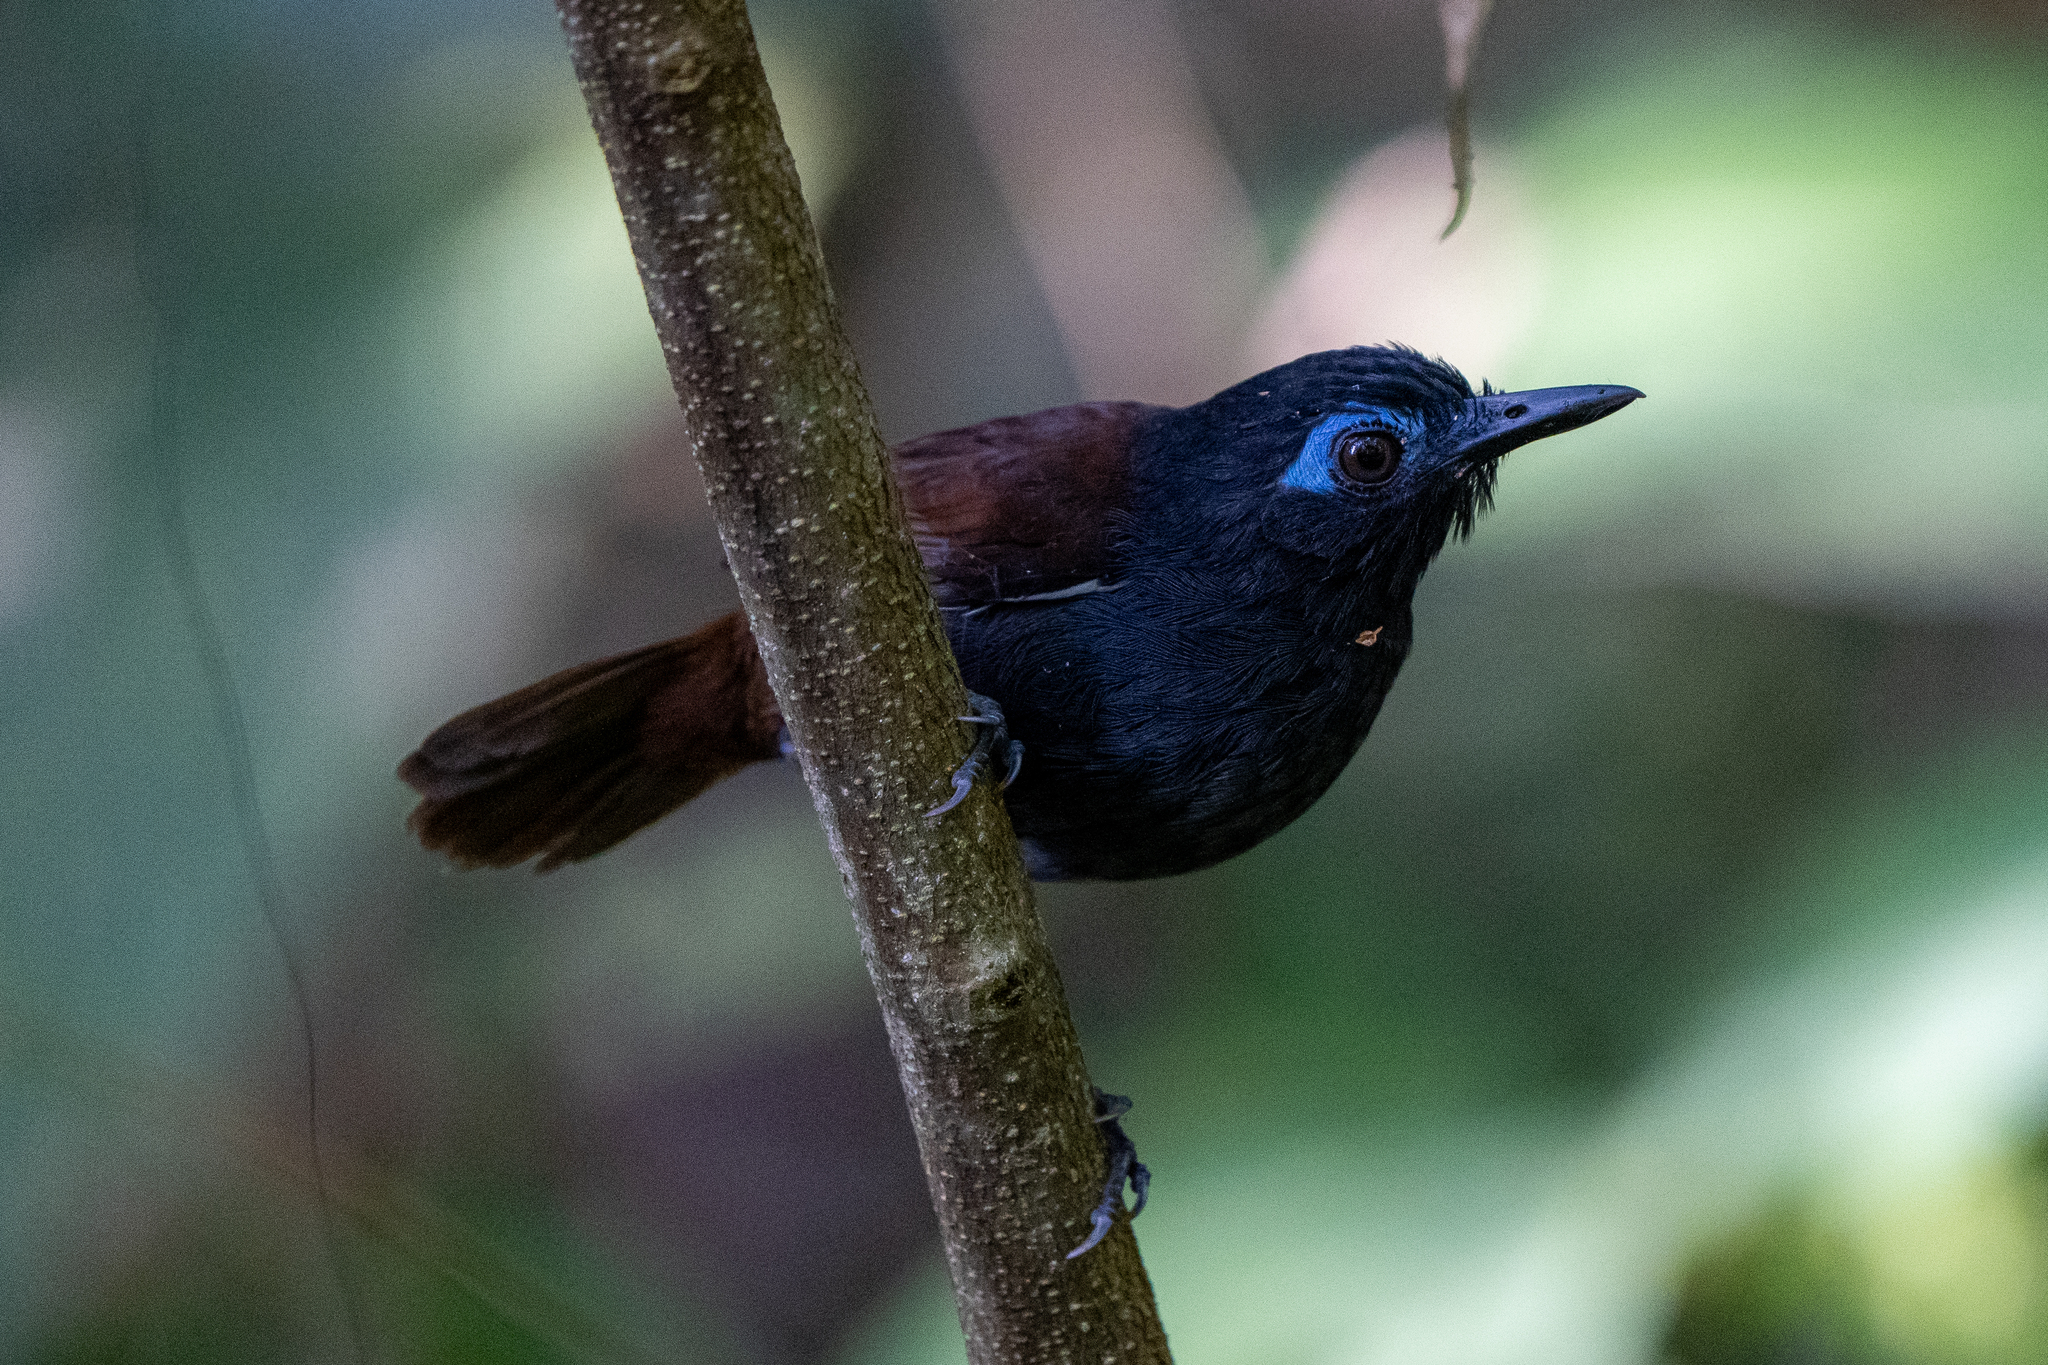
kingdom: Animalia
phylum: Chordata
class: Aves
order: Passeriformes
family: Thamnophilidae
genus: Myrmeciza
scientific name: Myrmeciza exsul
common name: Chestnut-backed antbird
